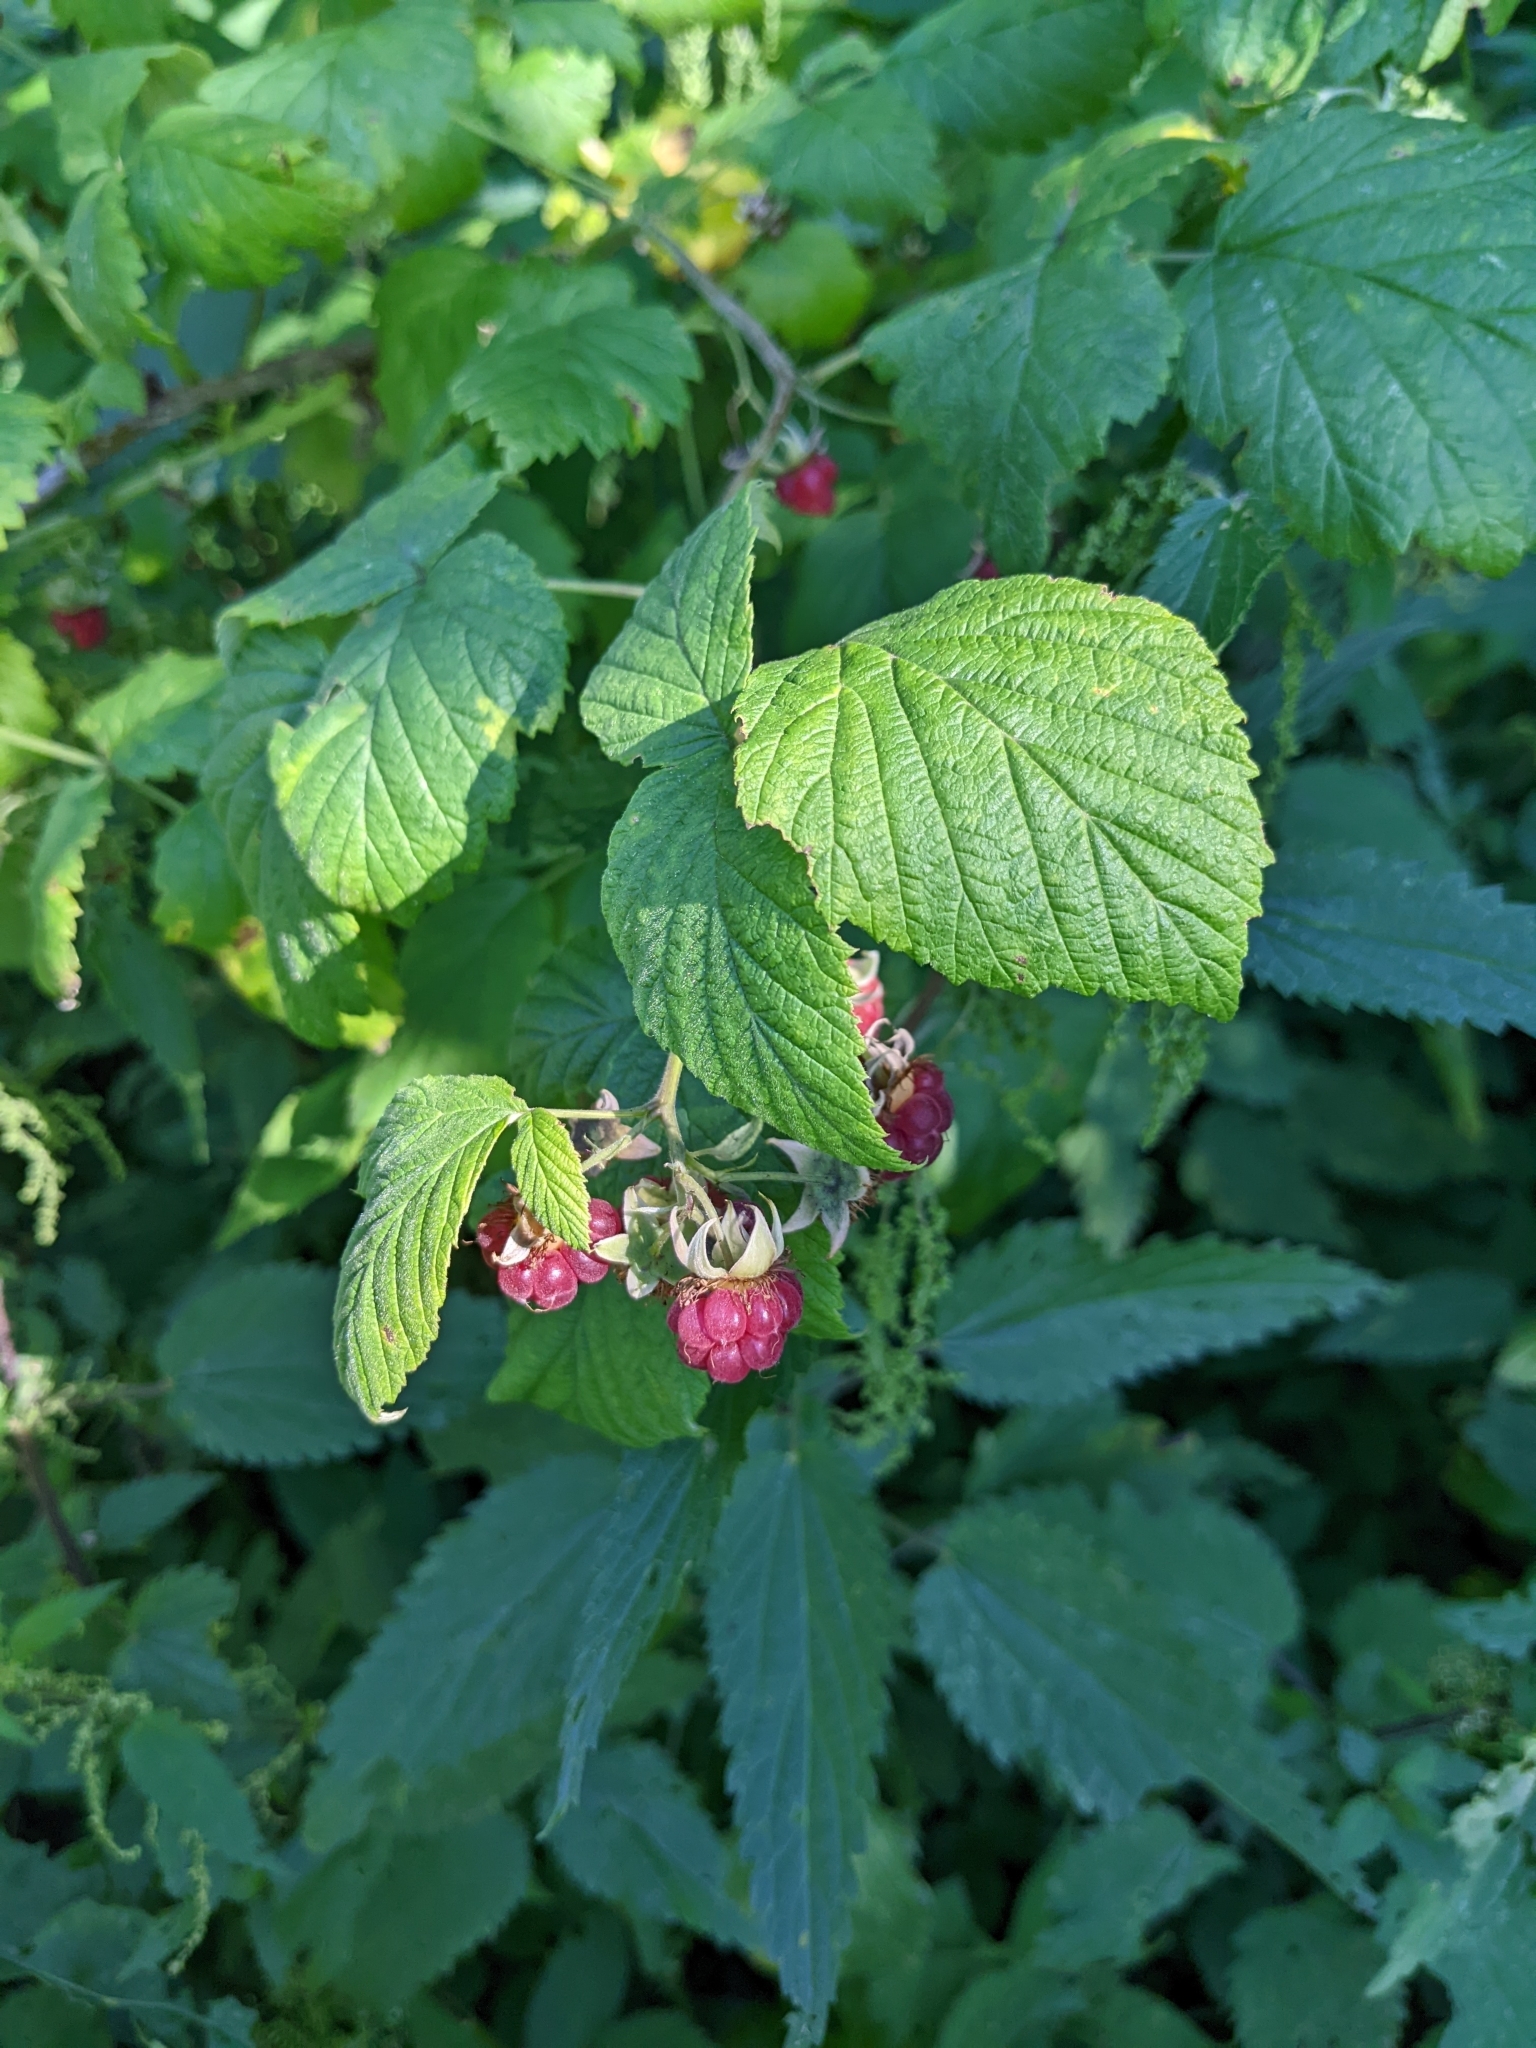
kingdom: Plantae
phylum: Tracheophyta
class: Magnoliopsida
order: Rosales
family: Rosaceae
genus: Rubus
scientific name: Rubus idaeus
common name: Raspberry
